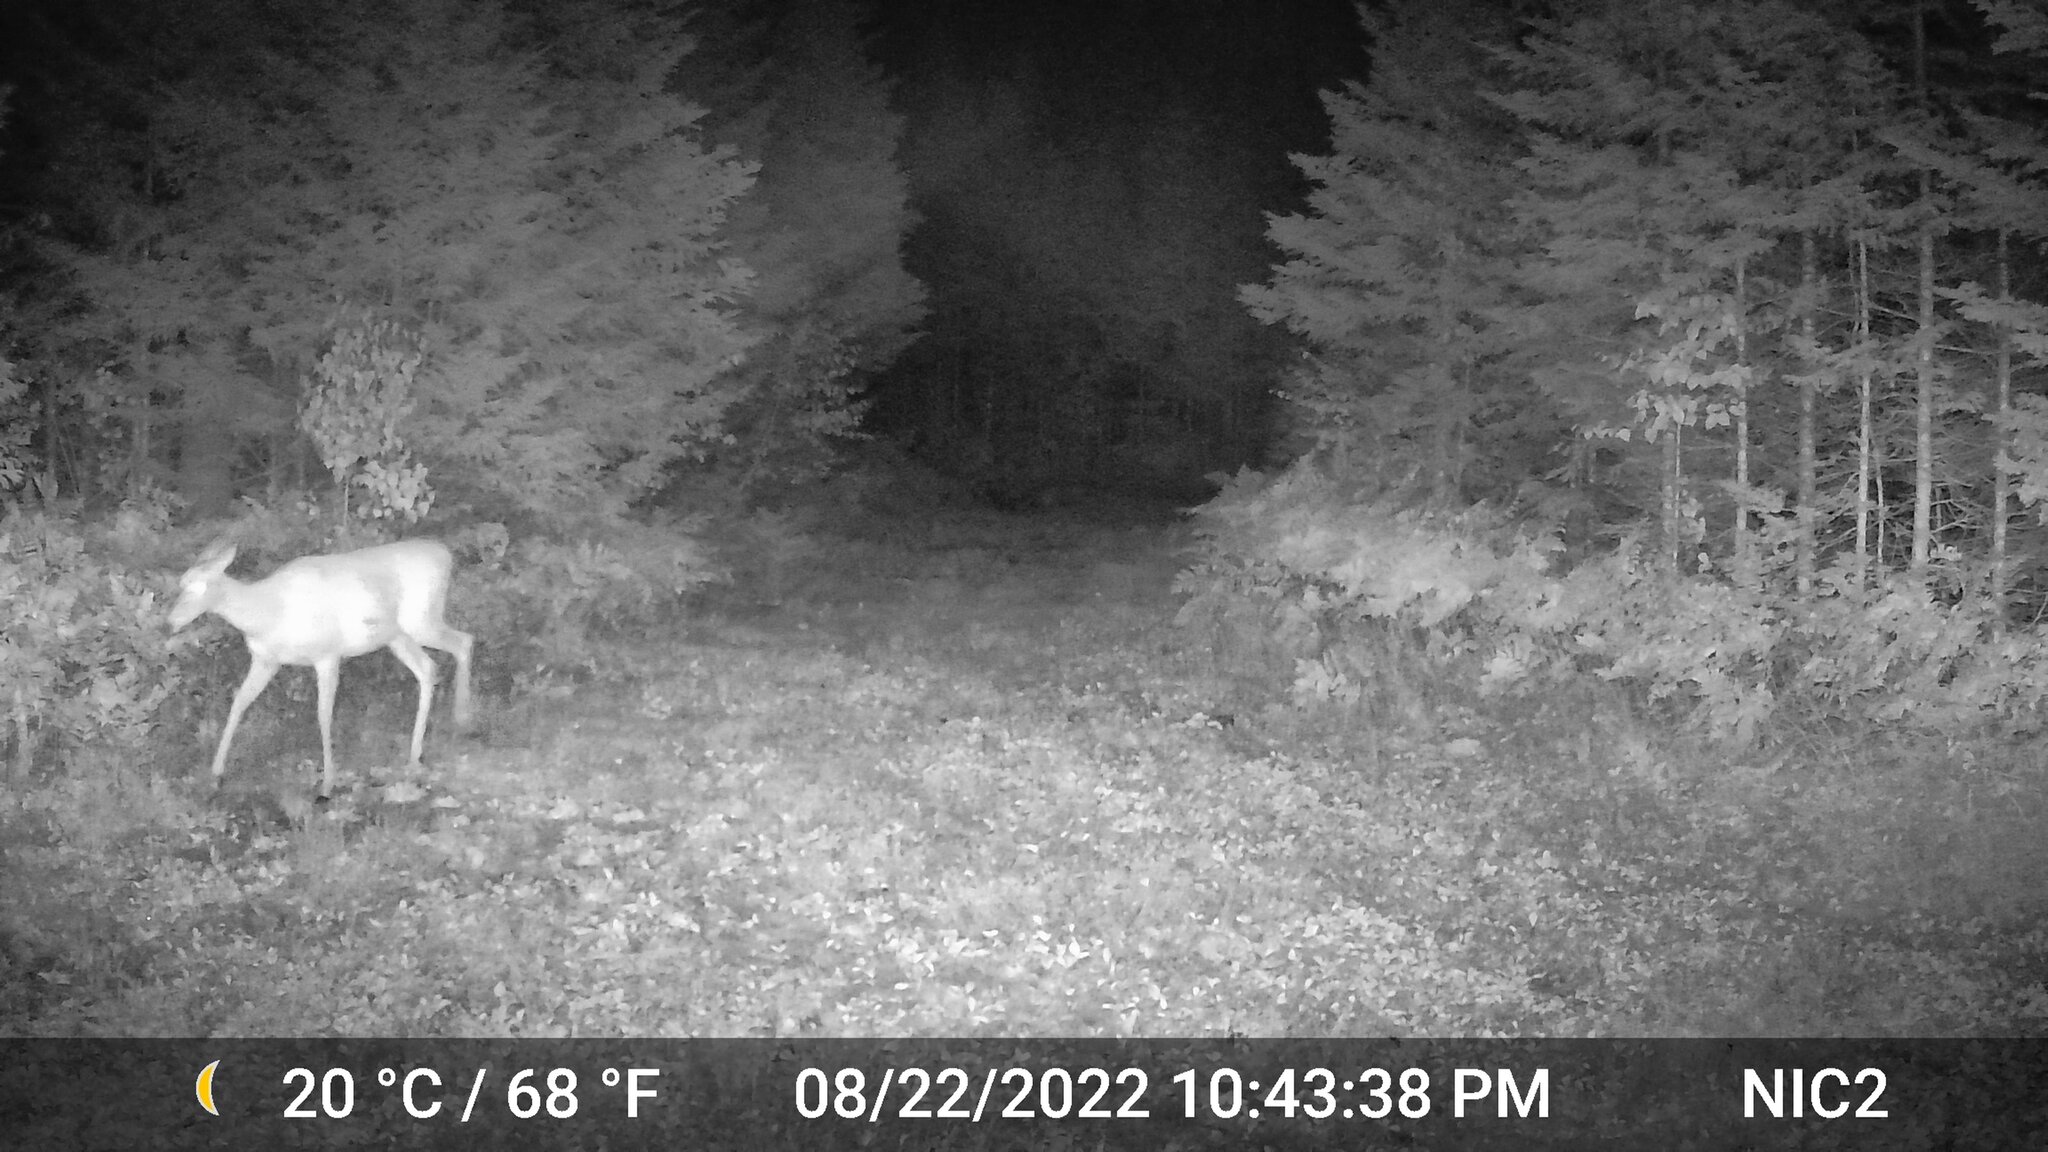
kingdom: Animalia
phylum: Chordata
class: Mammalia
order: Artiodactyla
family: Cervidae
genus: Odocoileus
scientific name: Odocoileus virginianus
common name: White-tailed deer
